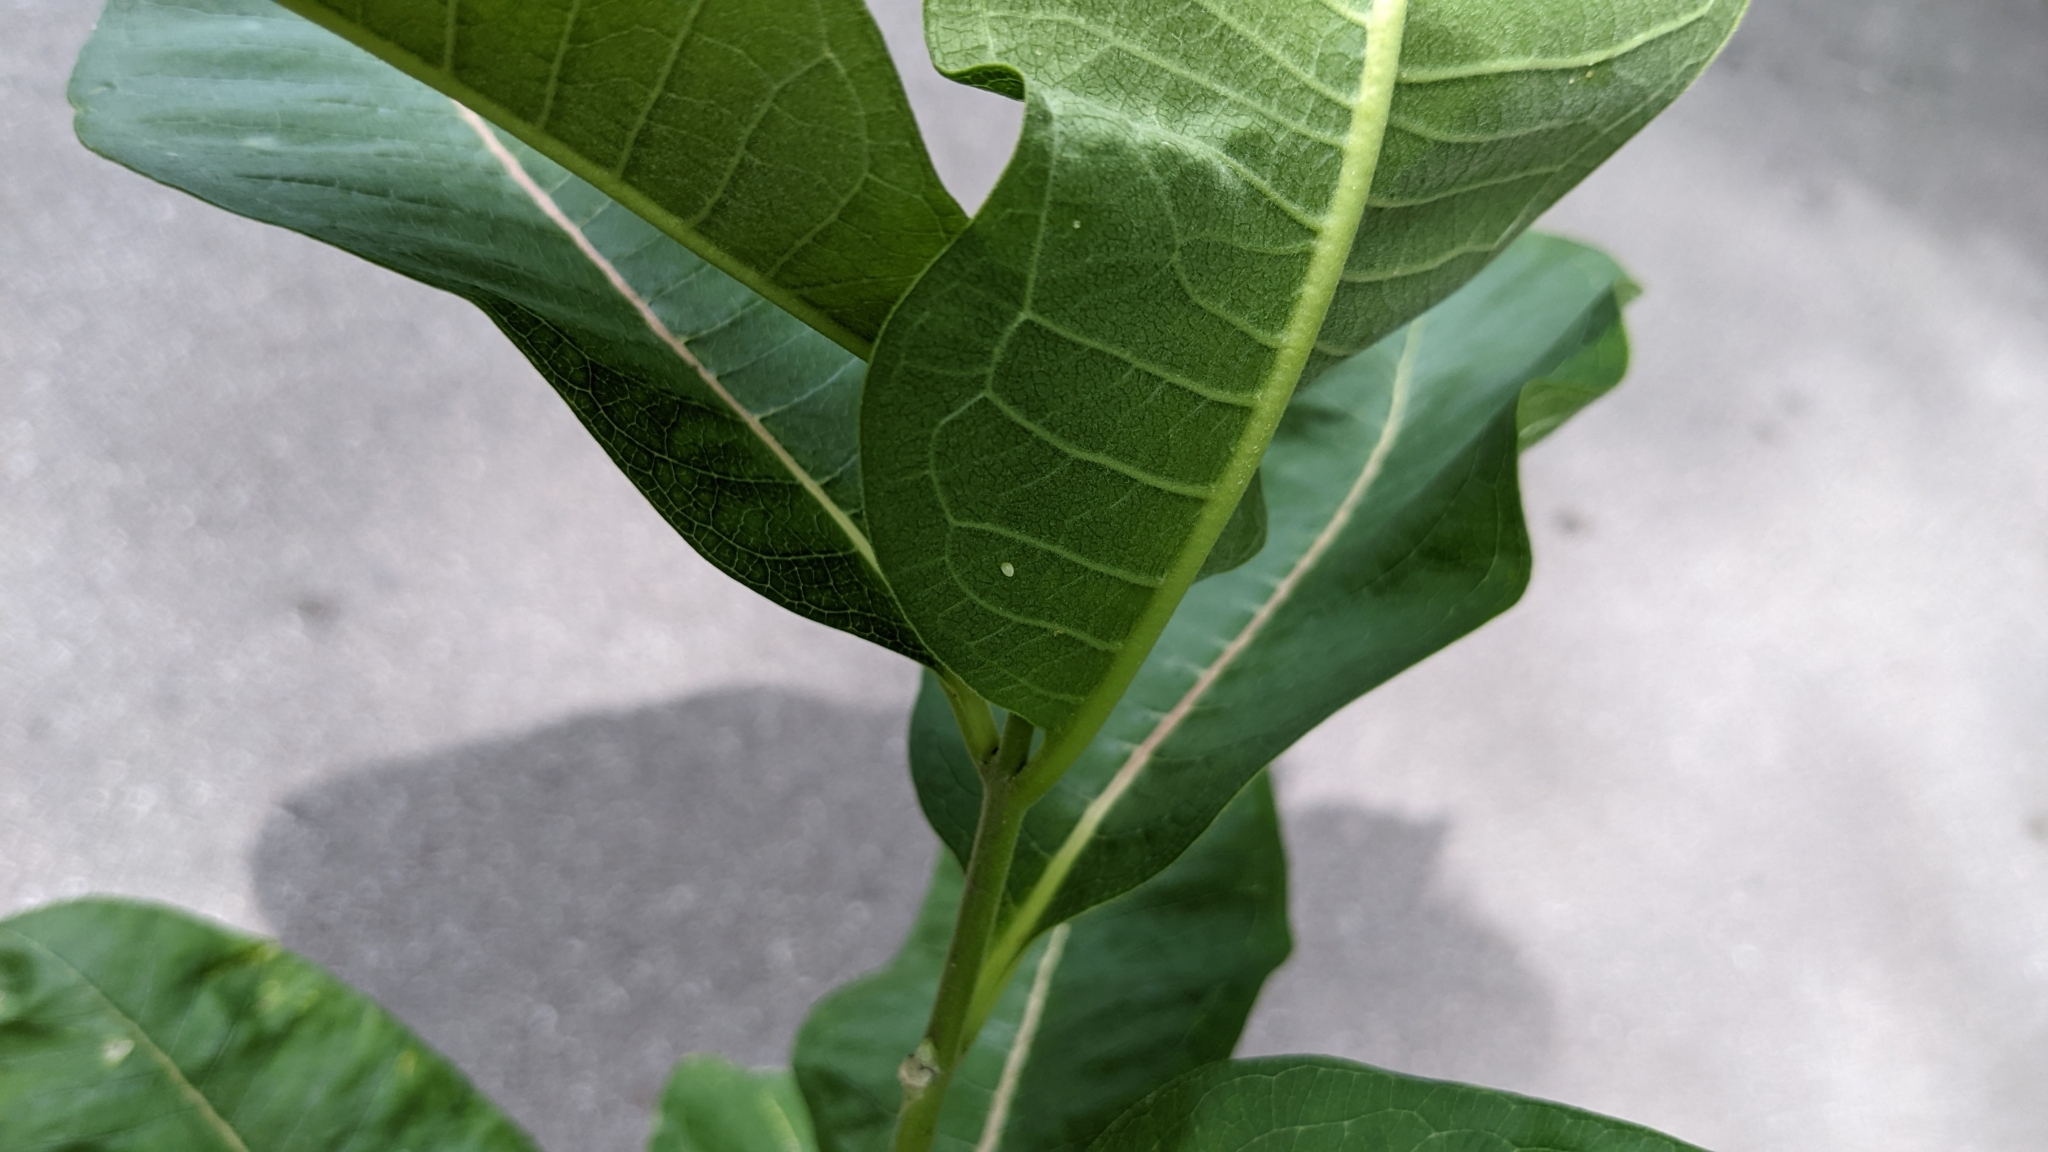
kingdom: Animalia
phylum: Arthropoda
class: Insecta
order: Lepidoptera
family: Nymphalidae
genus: Danaus
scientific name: Danaus plexippus
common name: Monarch
